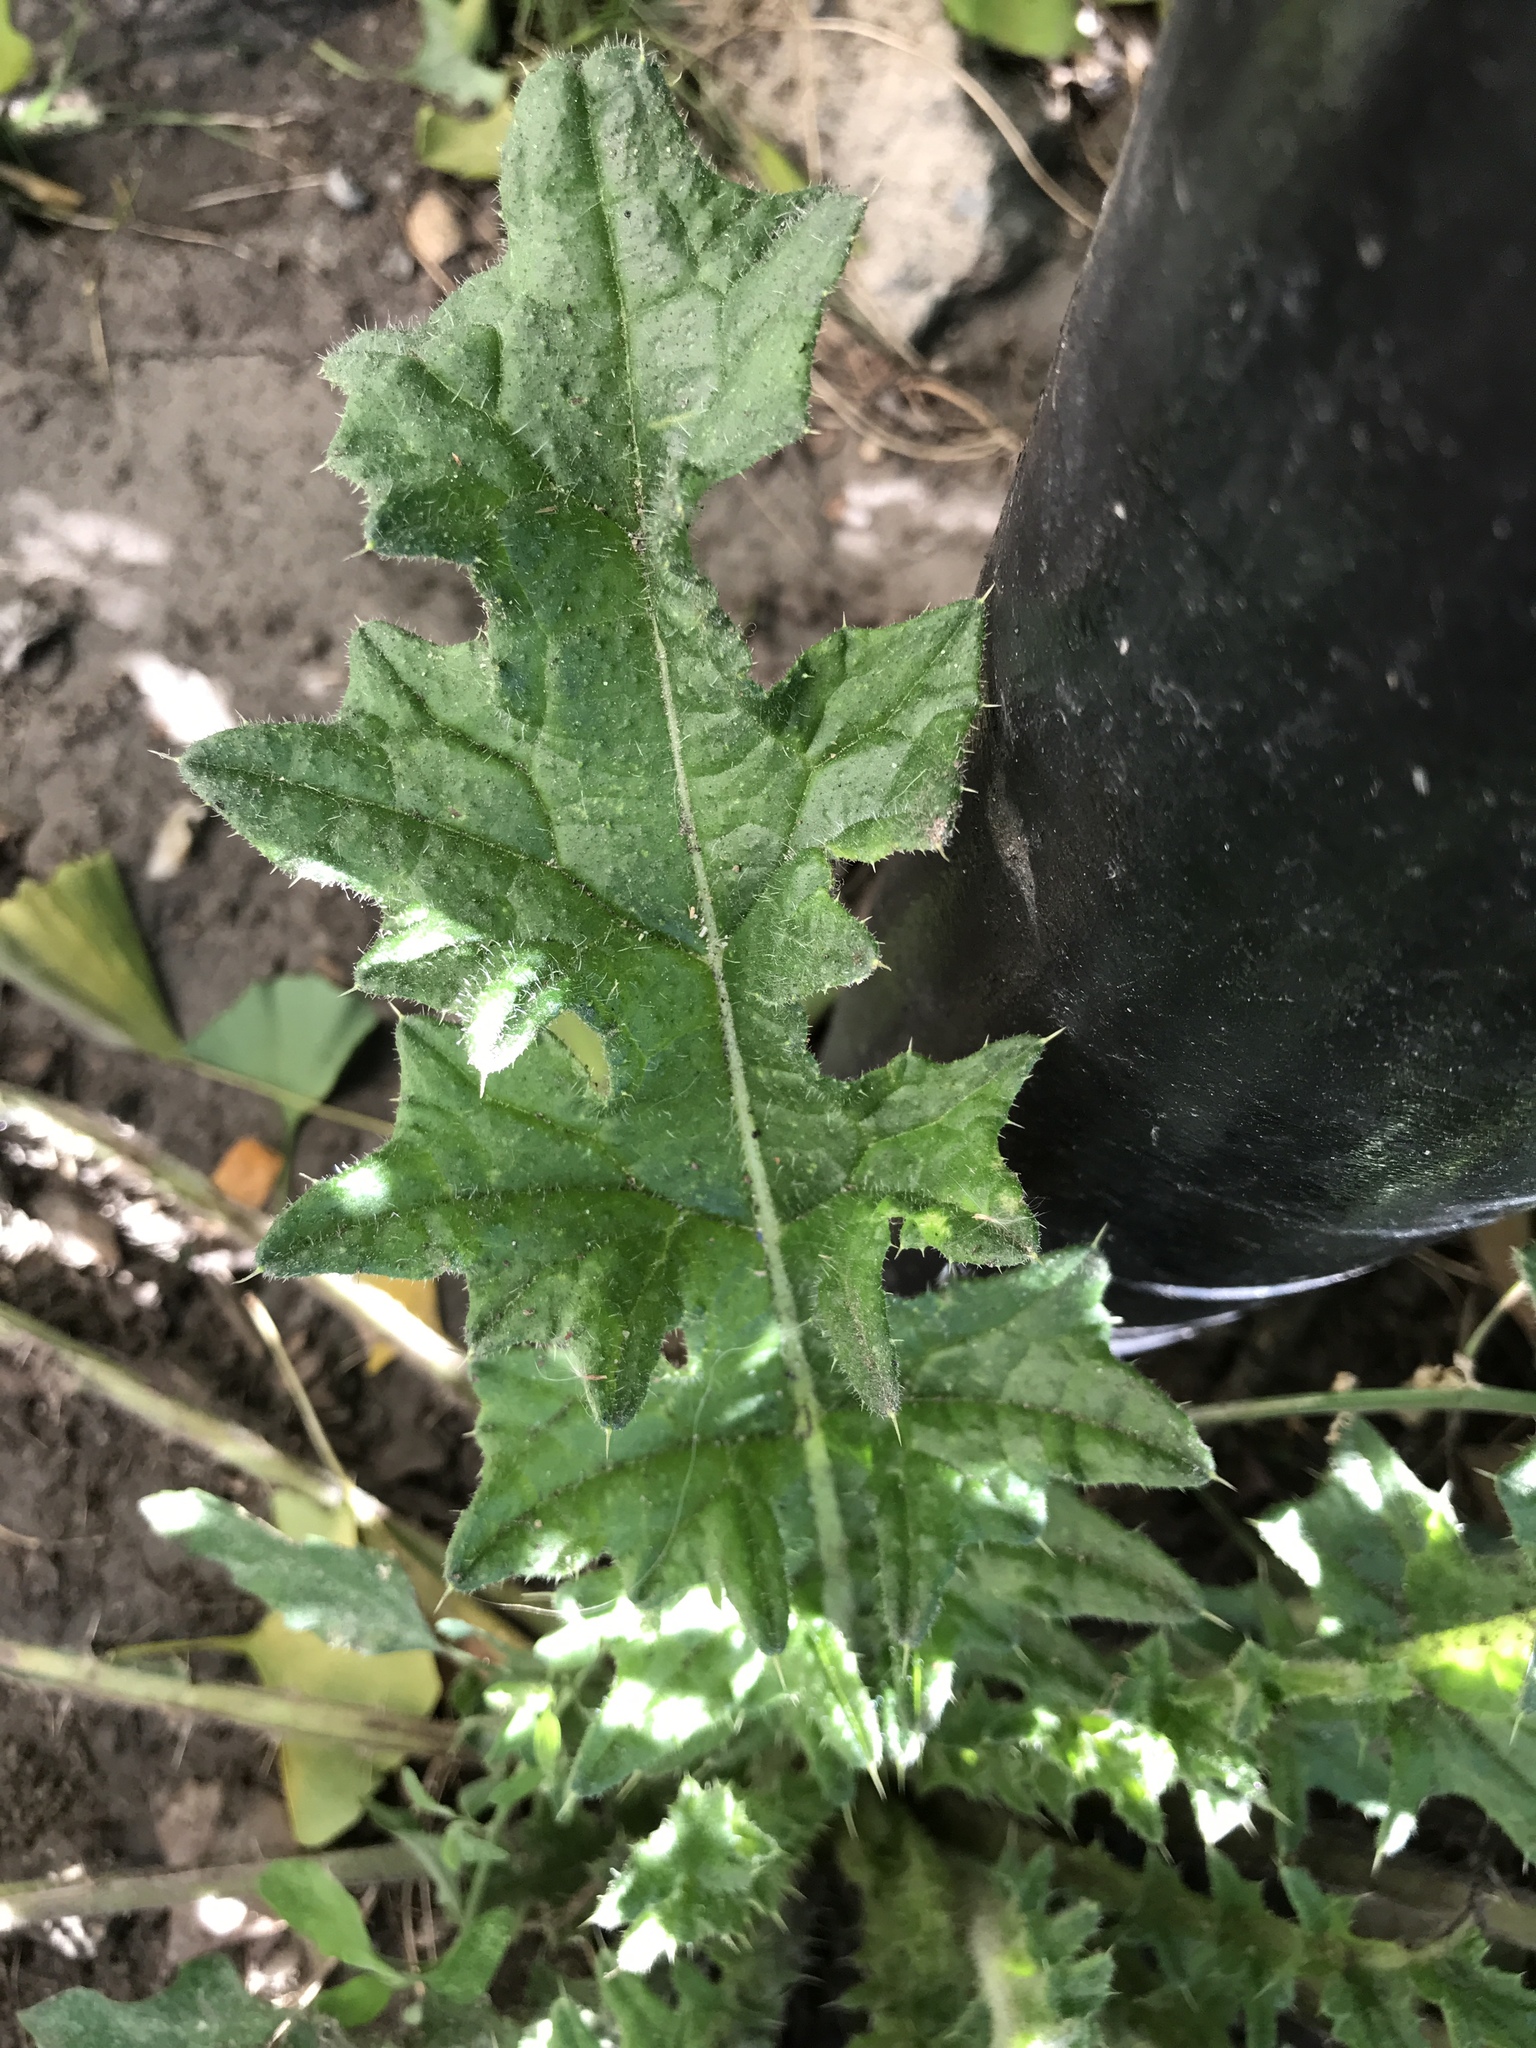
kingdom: Plantae
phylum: Tracheophyta
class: Magnoliopsida
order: Asterales
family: Asteraceae
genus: Cirsium
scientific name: Cirsium vulgare
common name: Bull thistle
